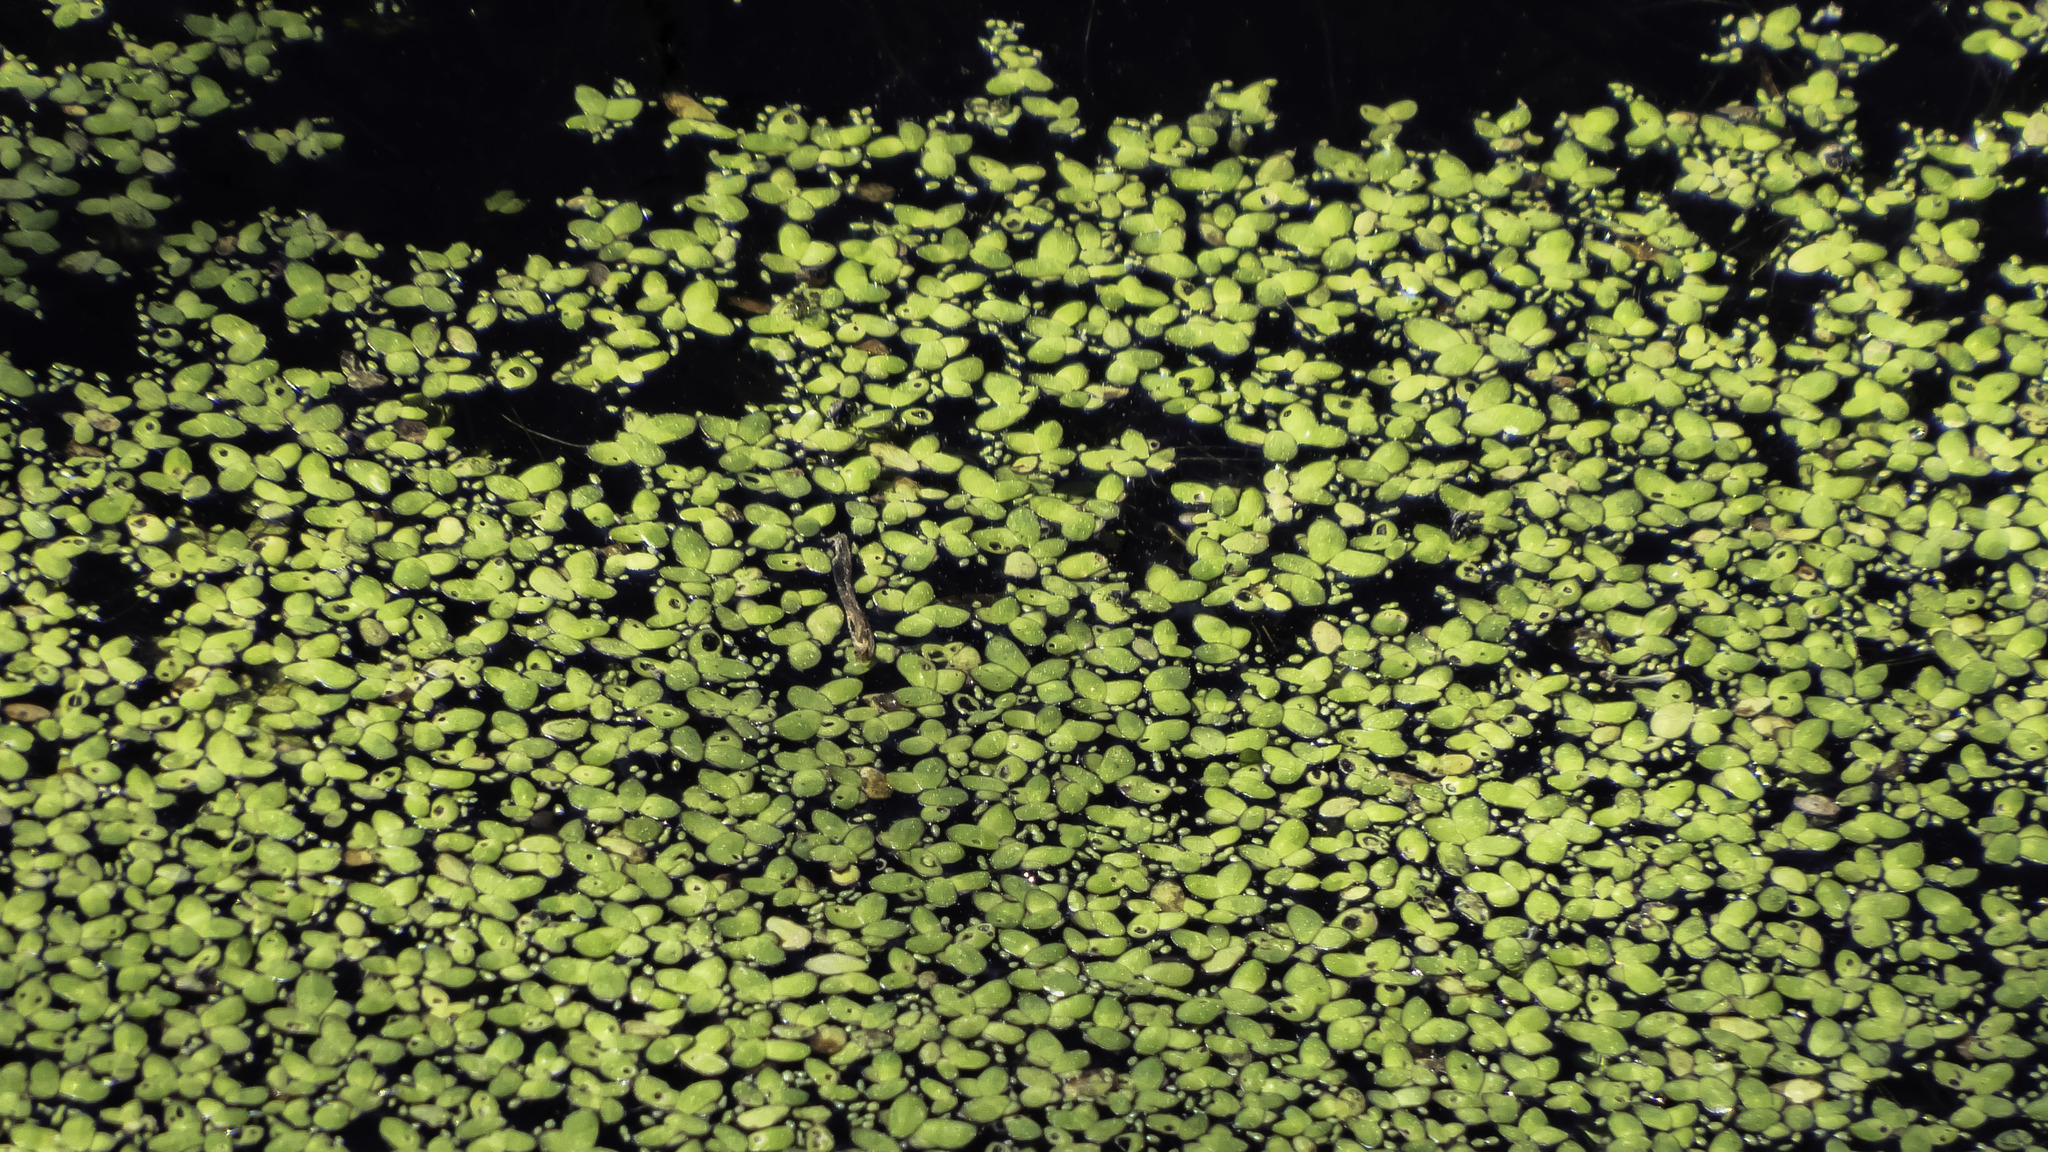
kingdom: Plantae
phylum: Tracheophyta
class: Liliopsida
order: Alismatales
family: Araceae
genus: Lemna
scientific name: Lemna minor
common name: Common duckweed
